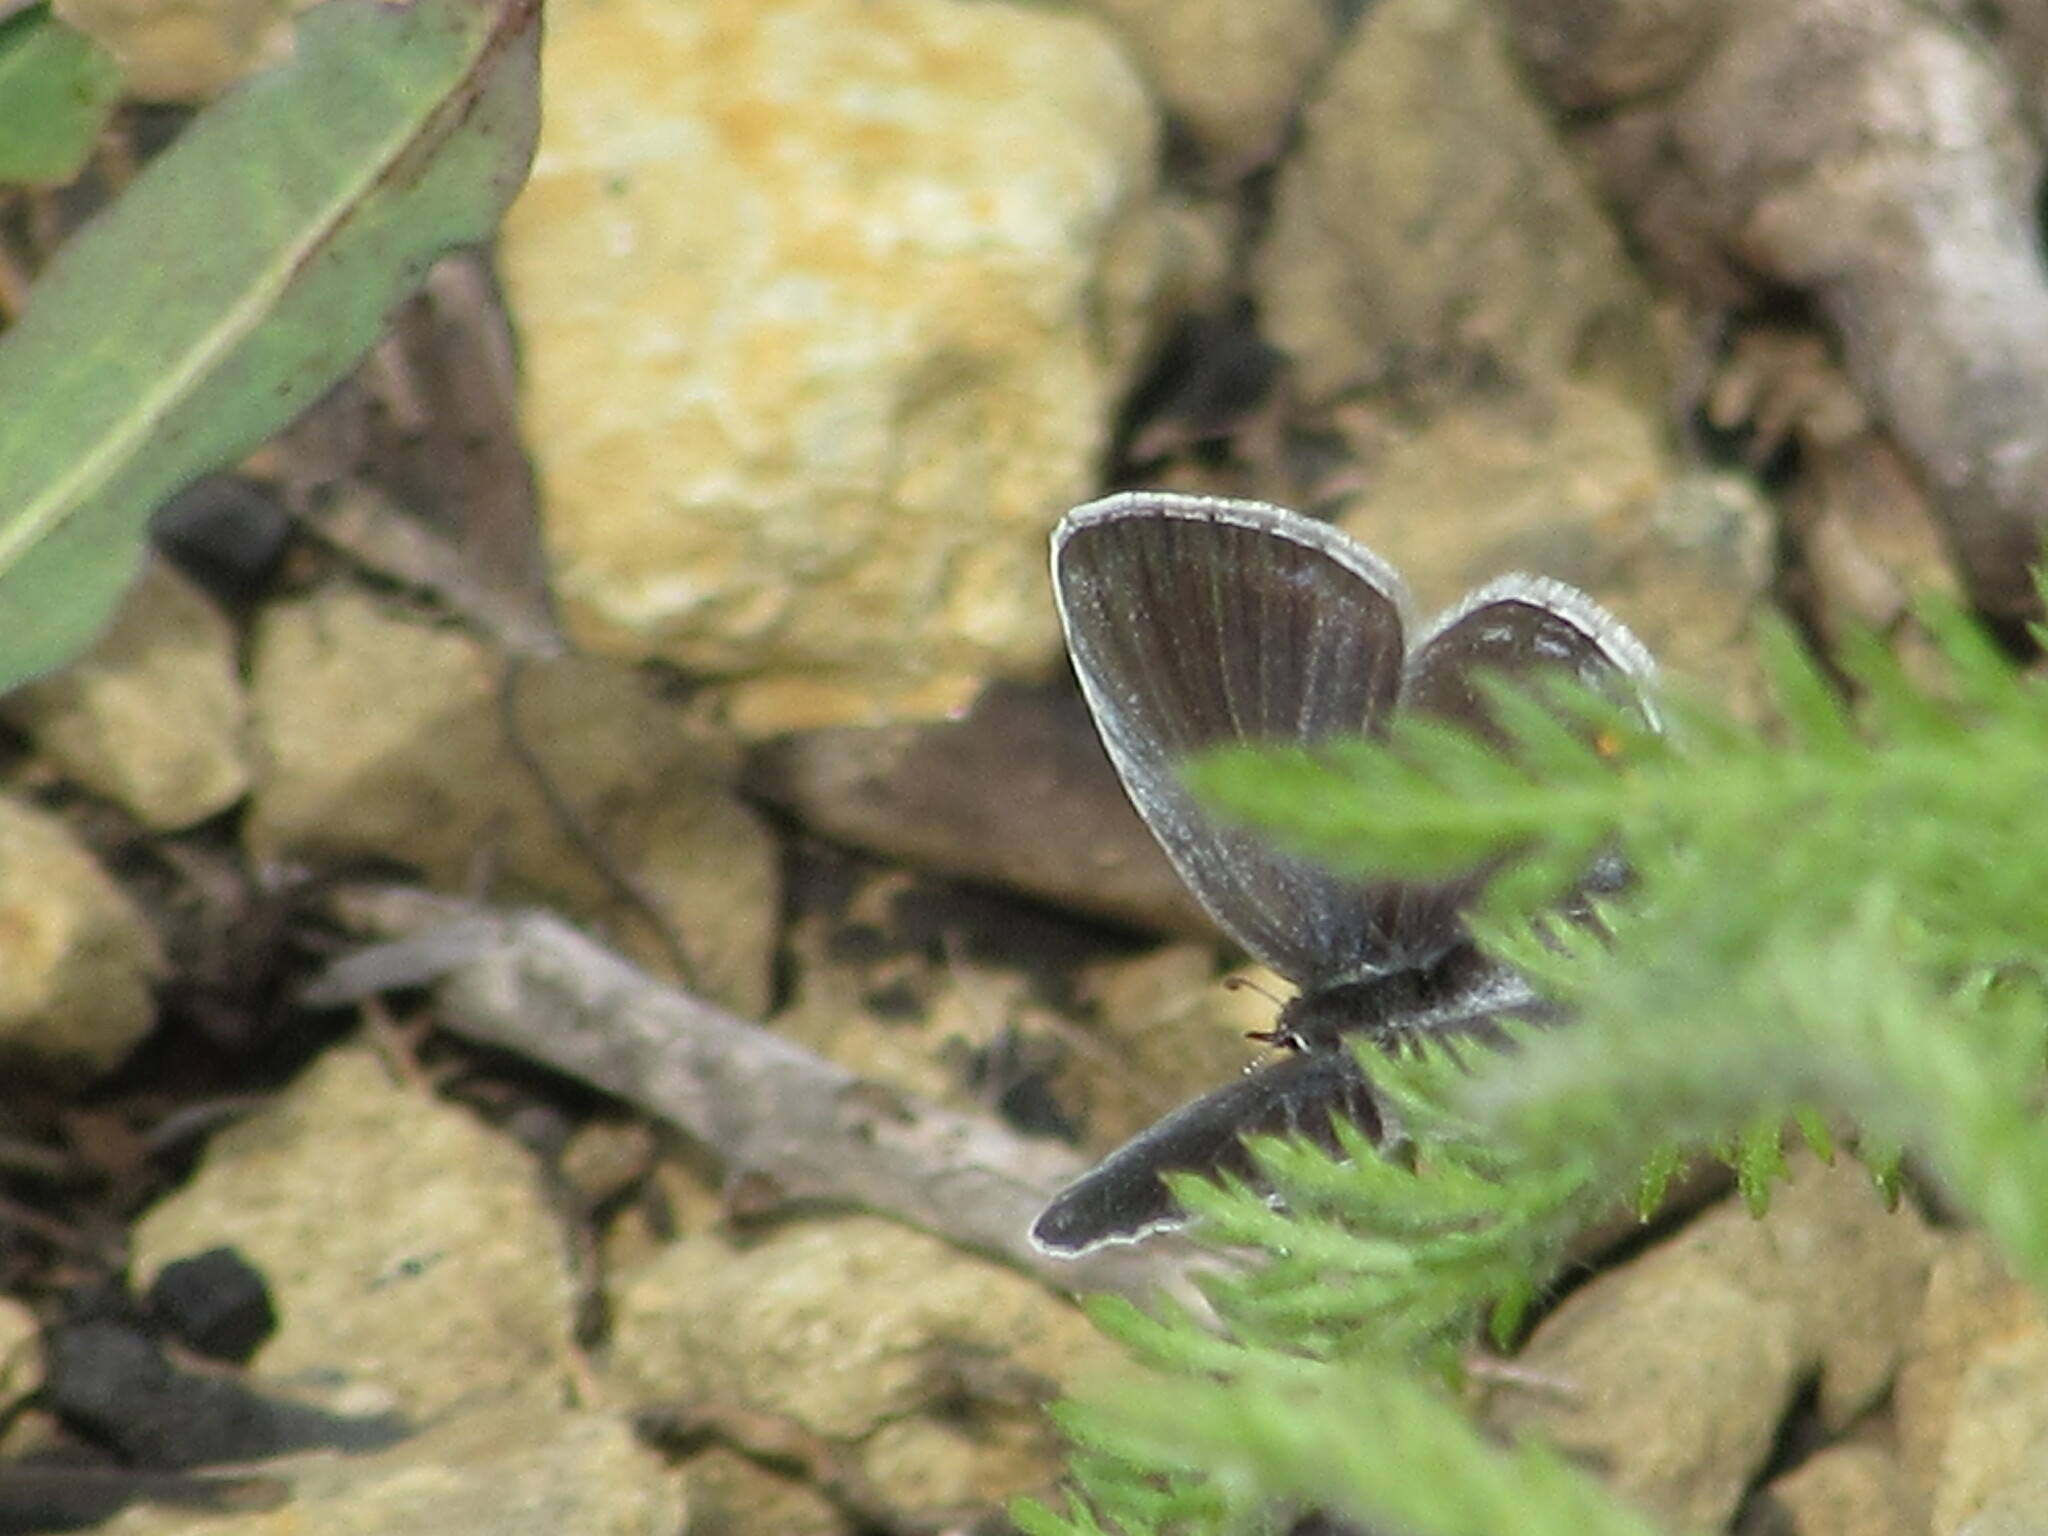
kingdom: Animalia
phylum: Arthropoda
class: Insecta
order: Lepidoptera
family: Lycaenidae
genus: Elkalyce
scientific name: Elkalyce comyntas
